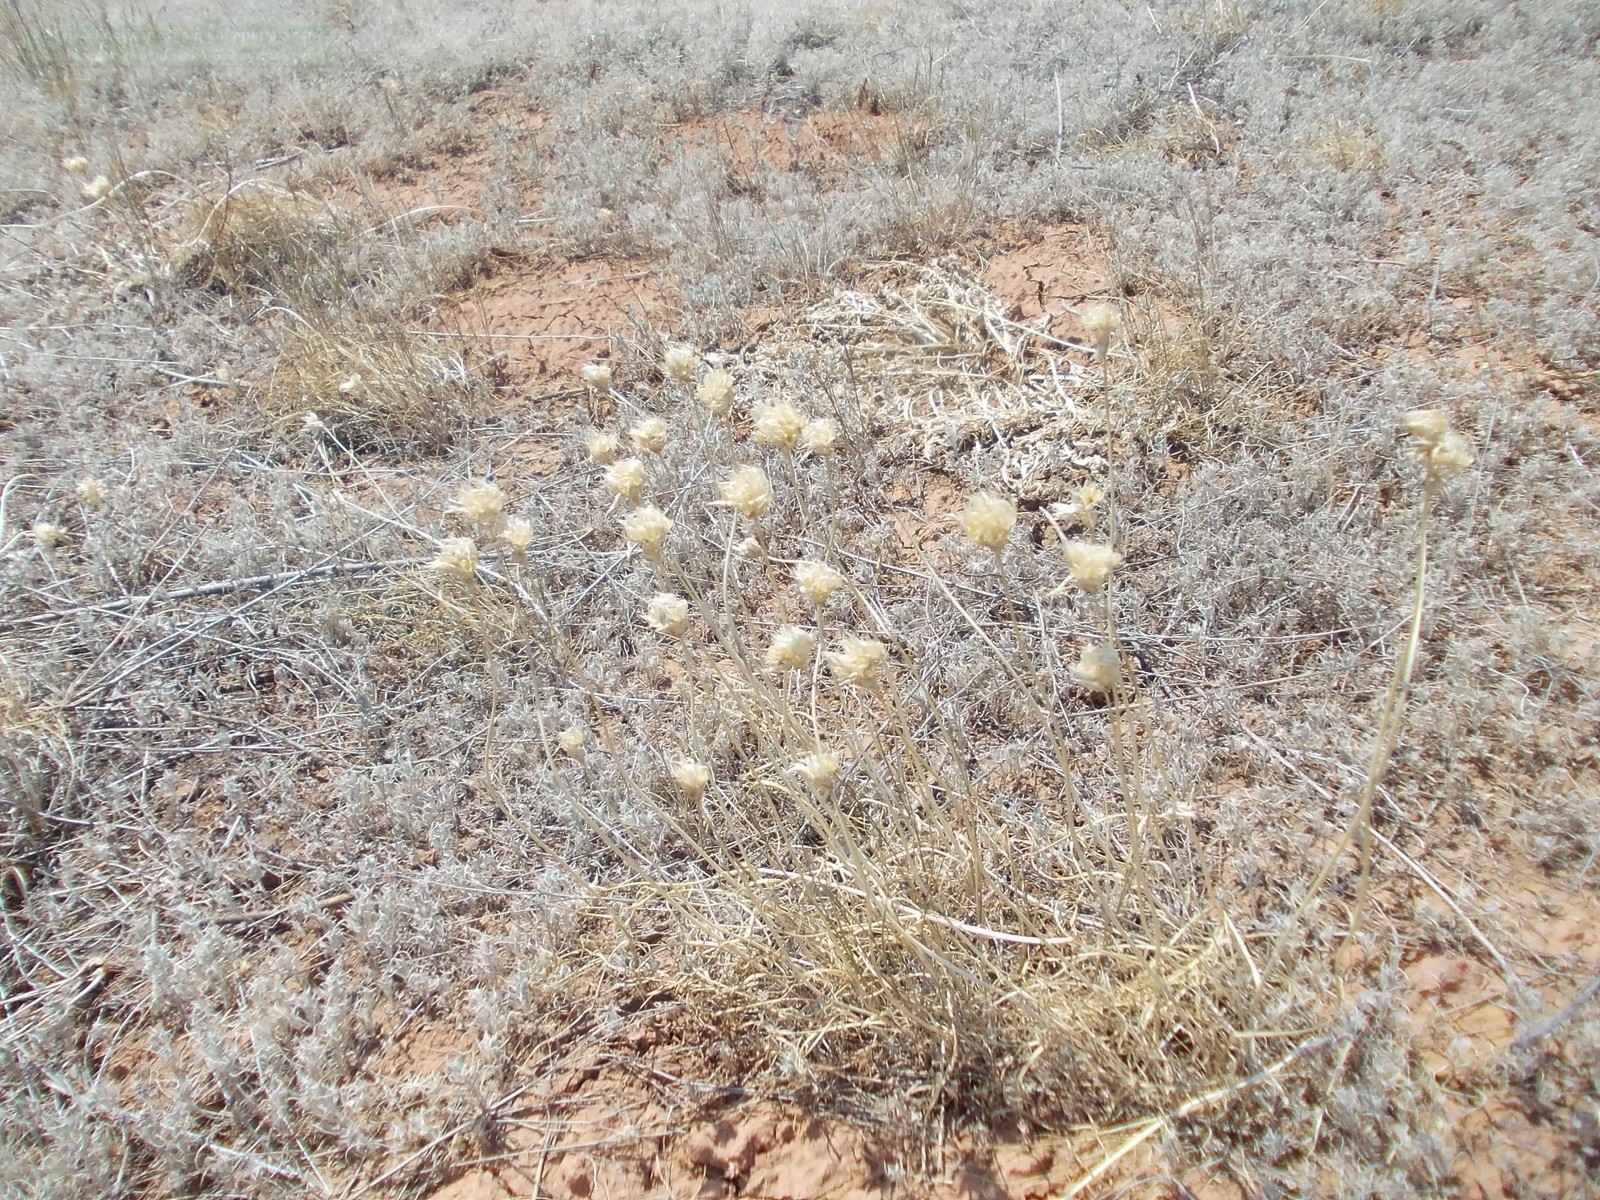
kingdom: Plantae
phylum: Tracheophyta
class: Liliopsida
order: Asparagales
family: Amaryllidaceae
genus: Allium
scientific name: Allium inderiense
